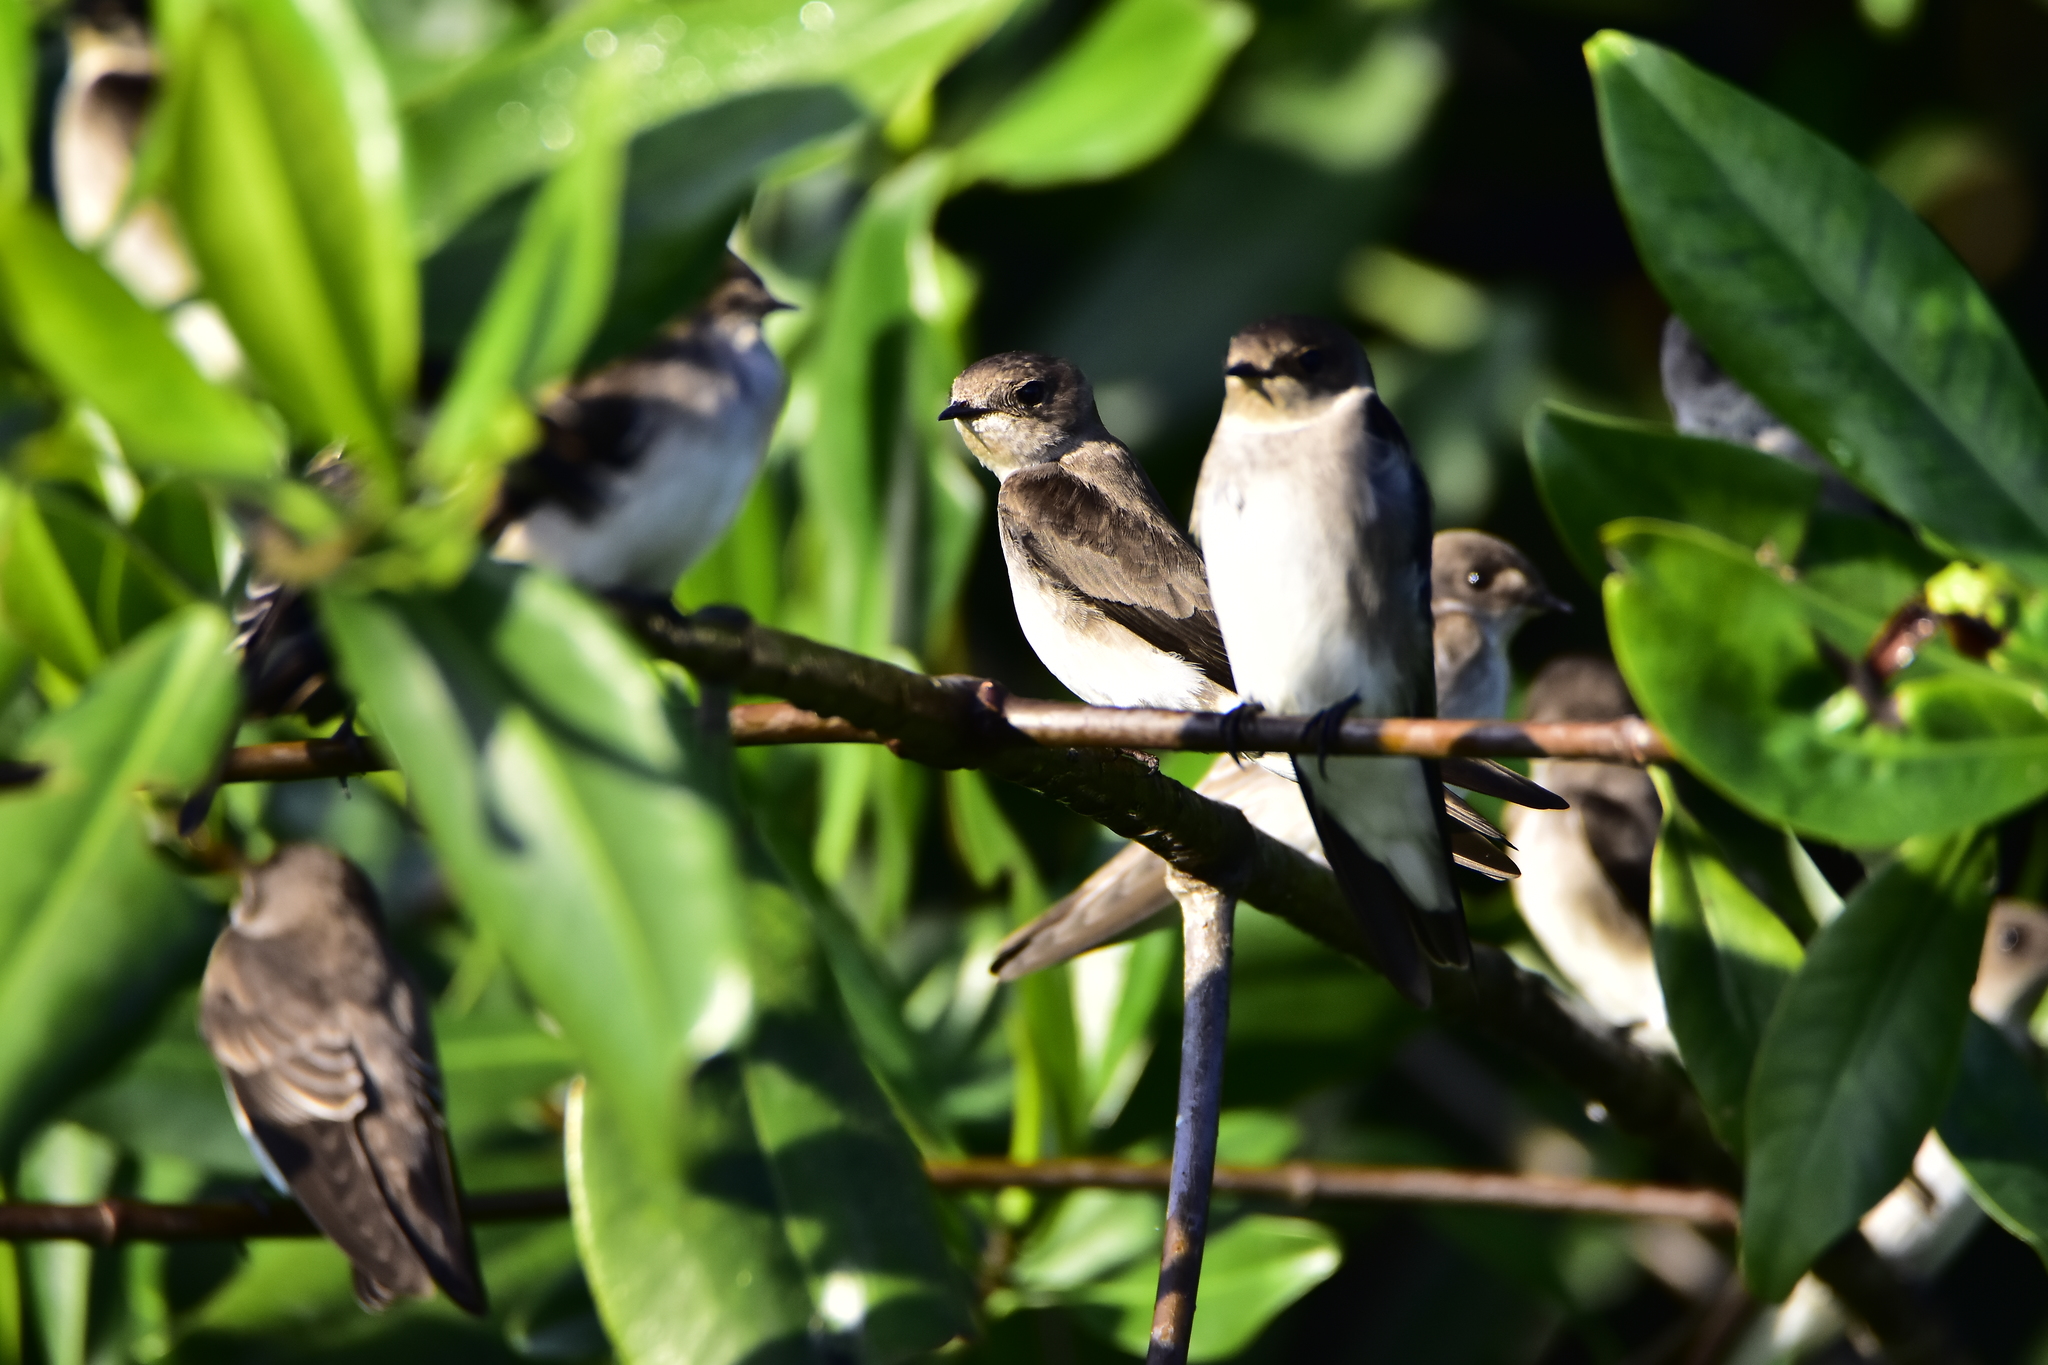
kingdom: Animalia
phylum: Chordata
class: Aves
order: Passeriformes
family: Hirundinidae
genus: Stelgidopteryx
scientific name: Stelgidopteryx serripennis
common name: Northern rough-winged swallow
